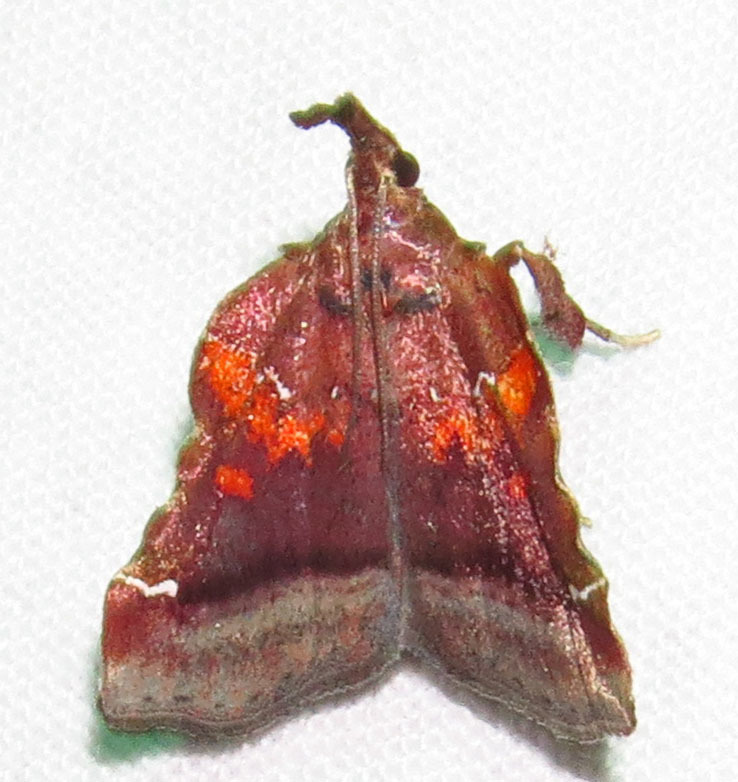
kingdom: Animalia
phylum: Arthropoda
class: Insecta
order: Lepidoptera
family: Pyralidae
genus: Clydonopteron
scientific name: Clydonopteron sacculana
